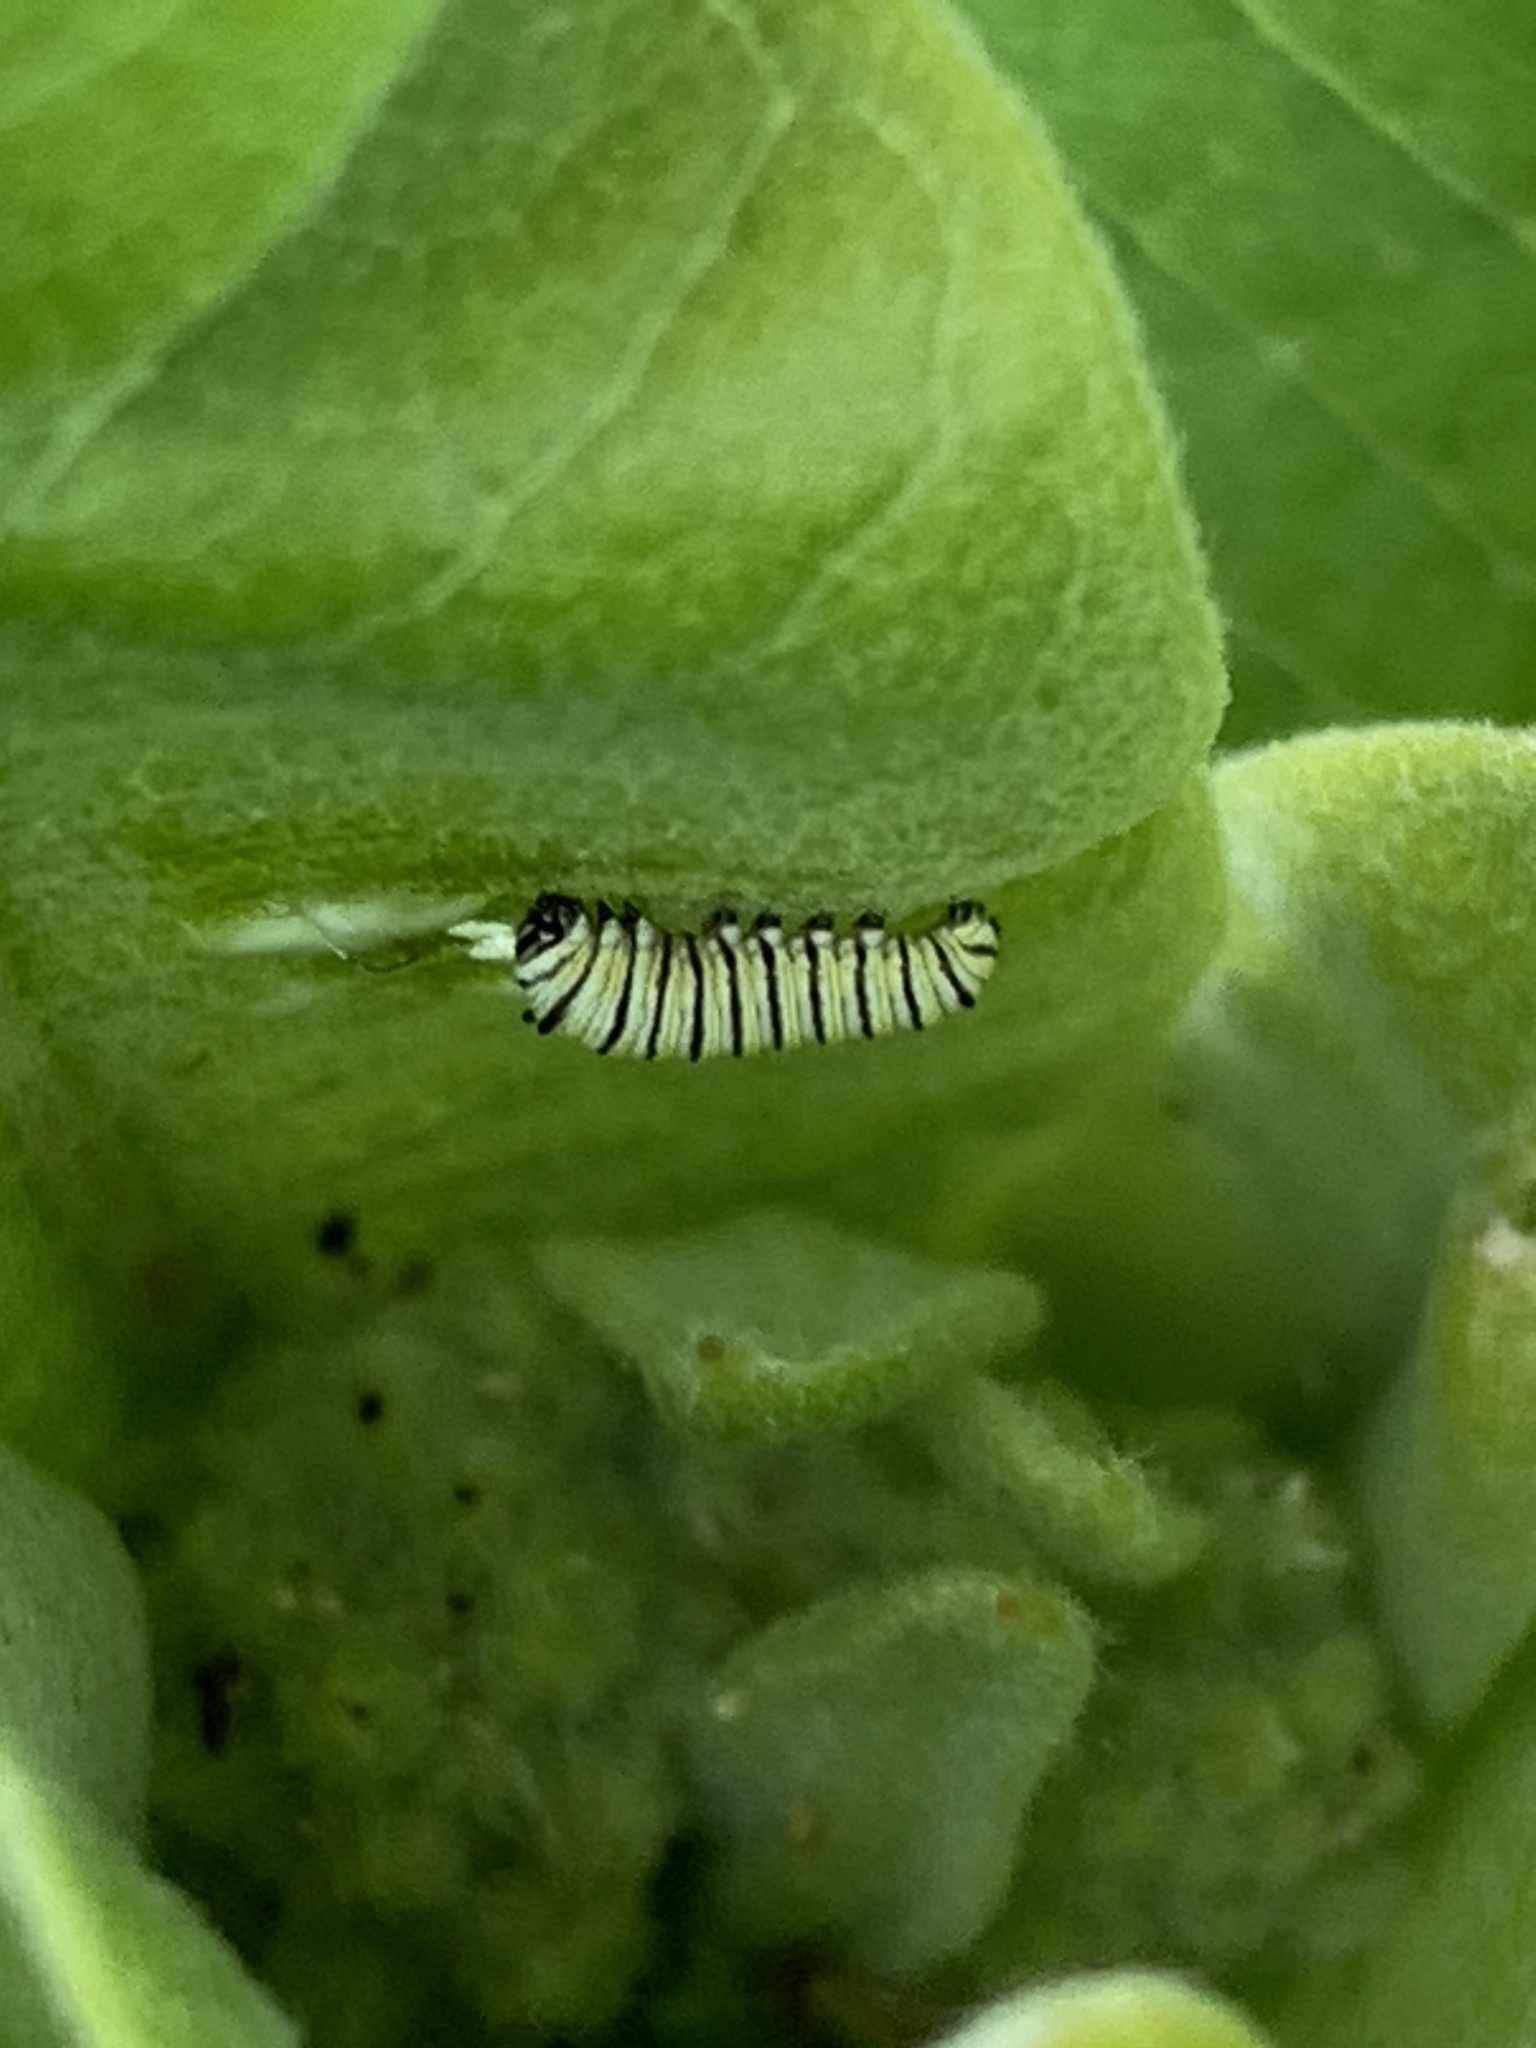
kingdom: Animalia
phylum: Arthropoda
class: Insecta
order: Lepidoptera
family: Nymphalidae
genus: Danaus
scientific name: Danaus plexippus
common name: Monarch
